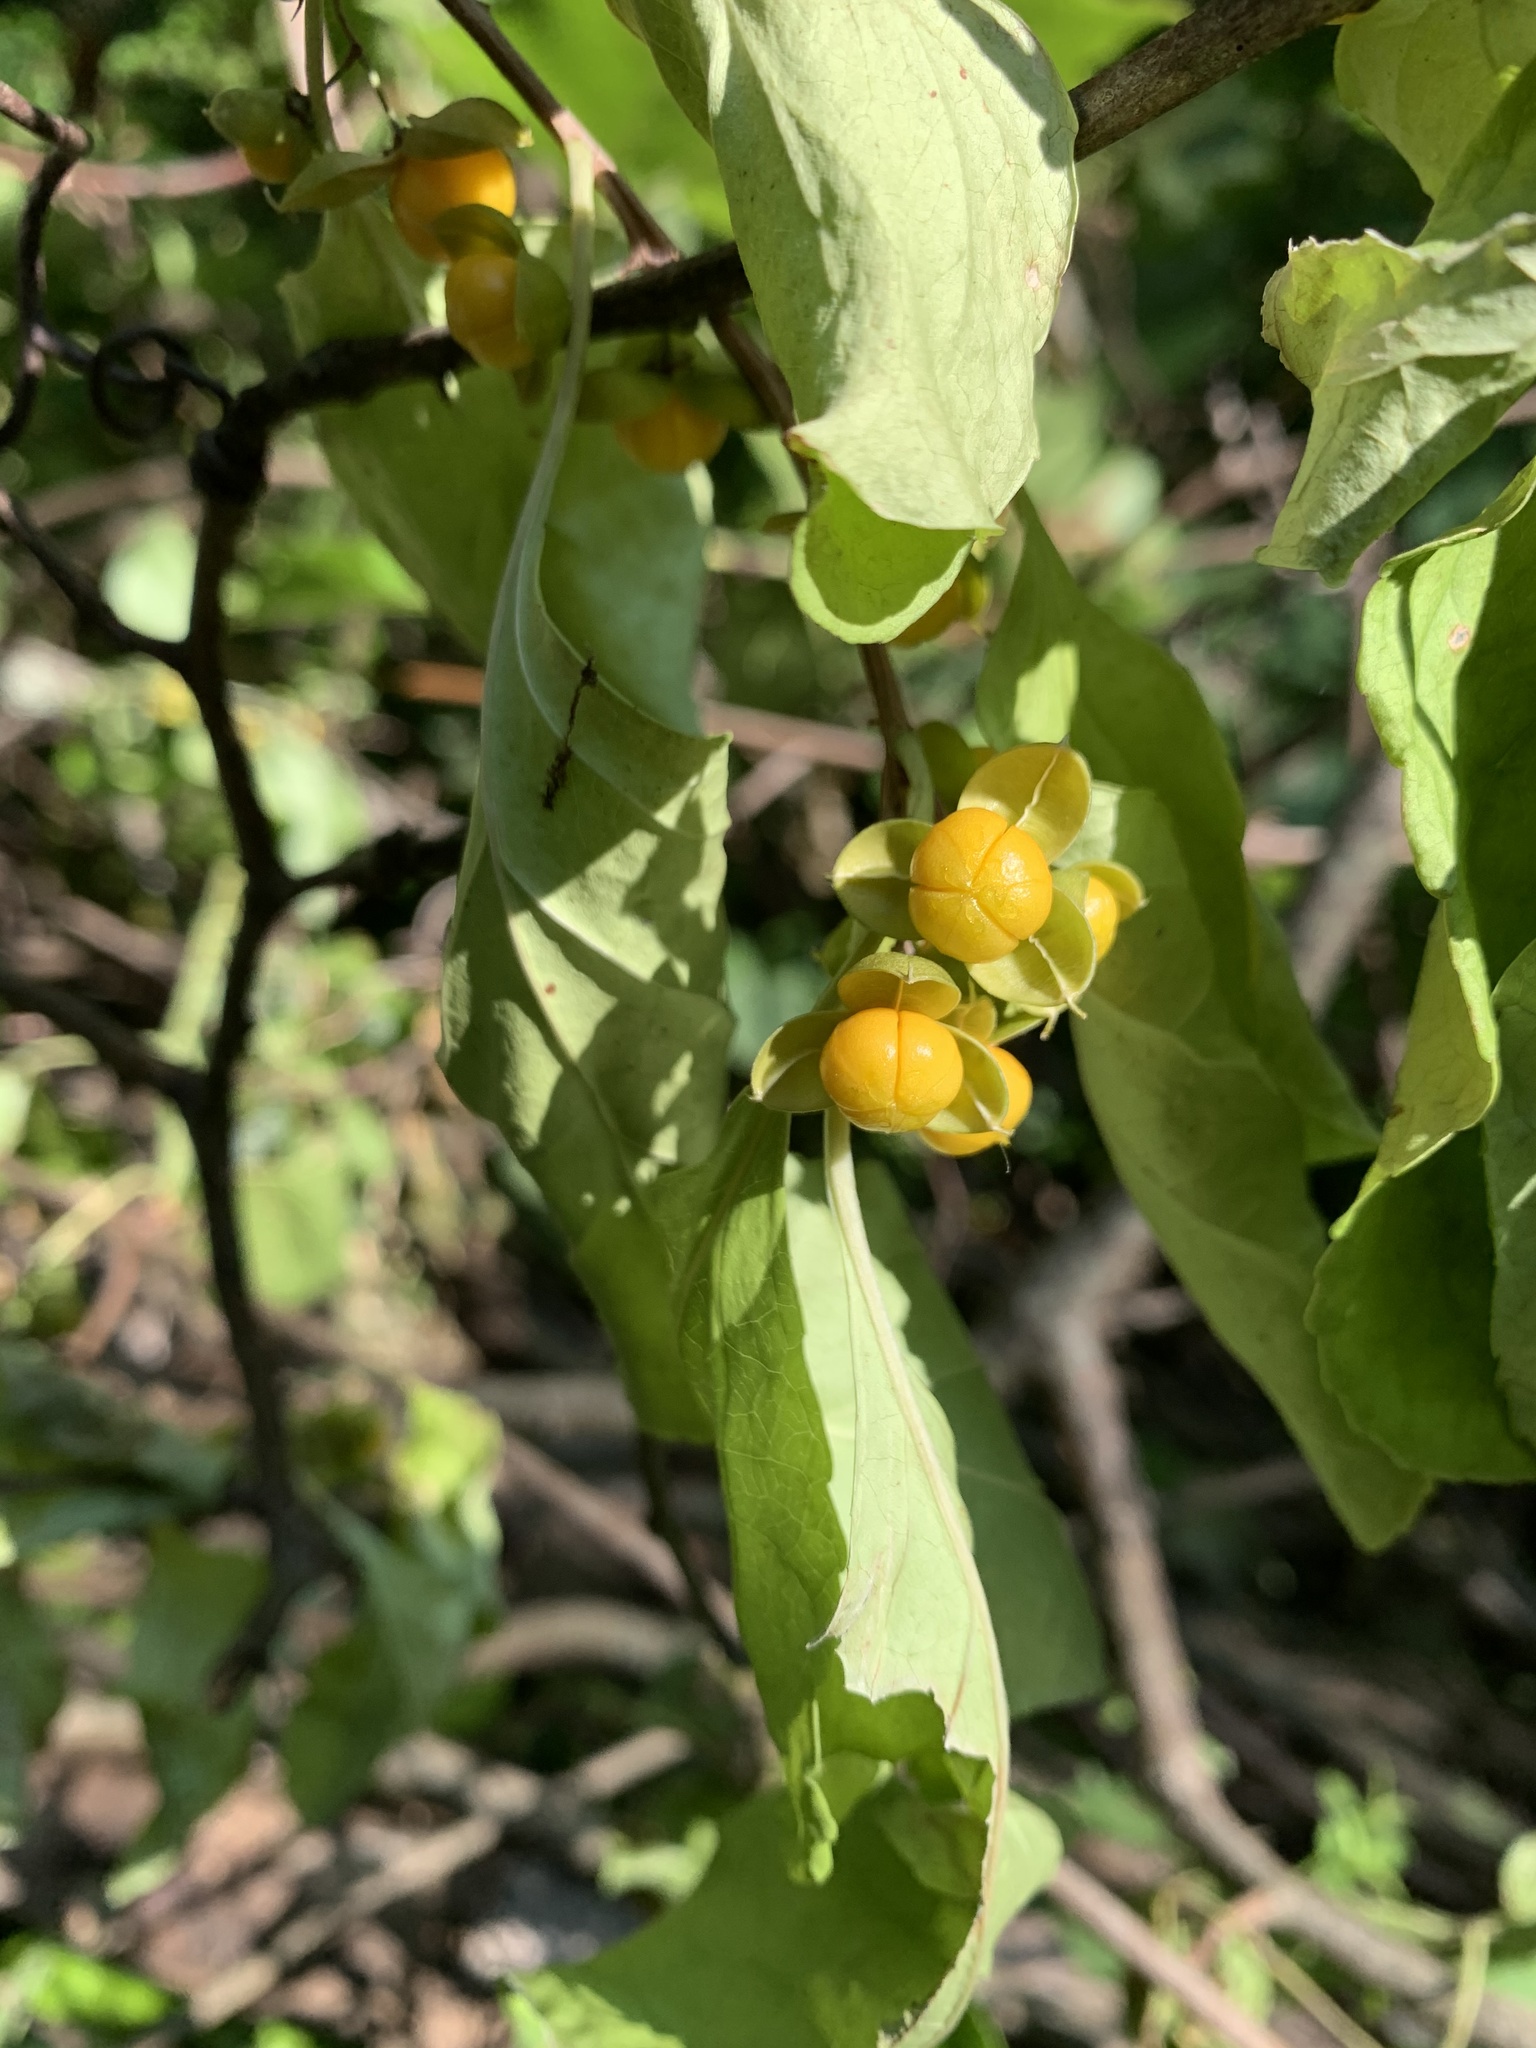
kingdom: Plantae
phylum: Tracheophyta
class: Magnoliopsida
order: Celastrales
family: Celastraceae
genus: Celastrus
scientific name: Celastrus orbiculatus
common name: Oriental bittersweet
